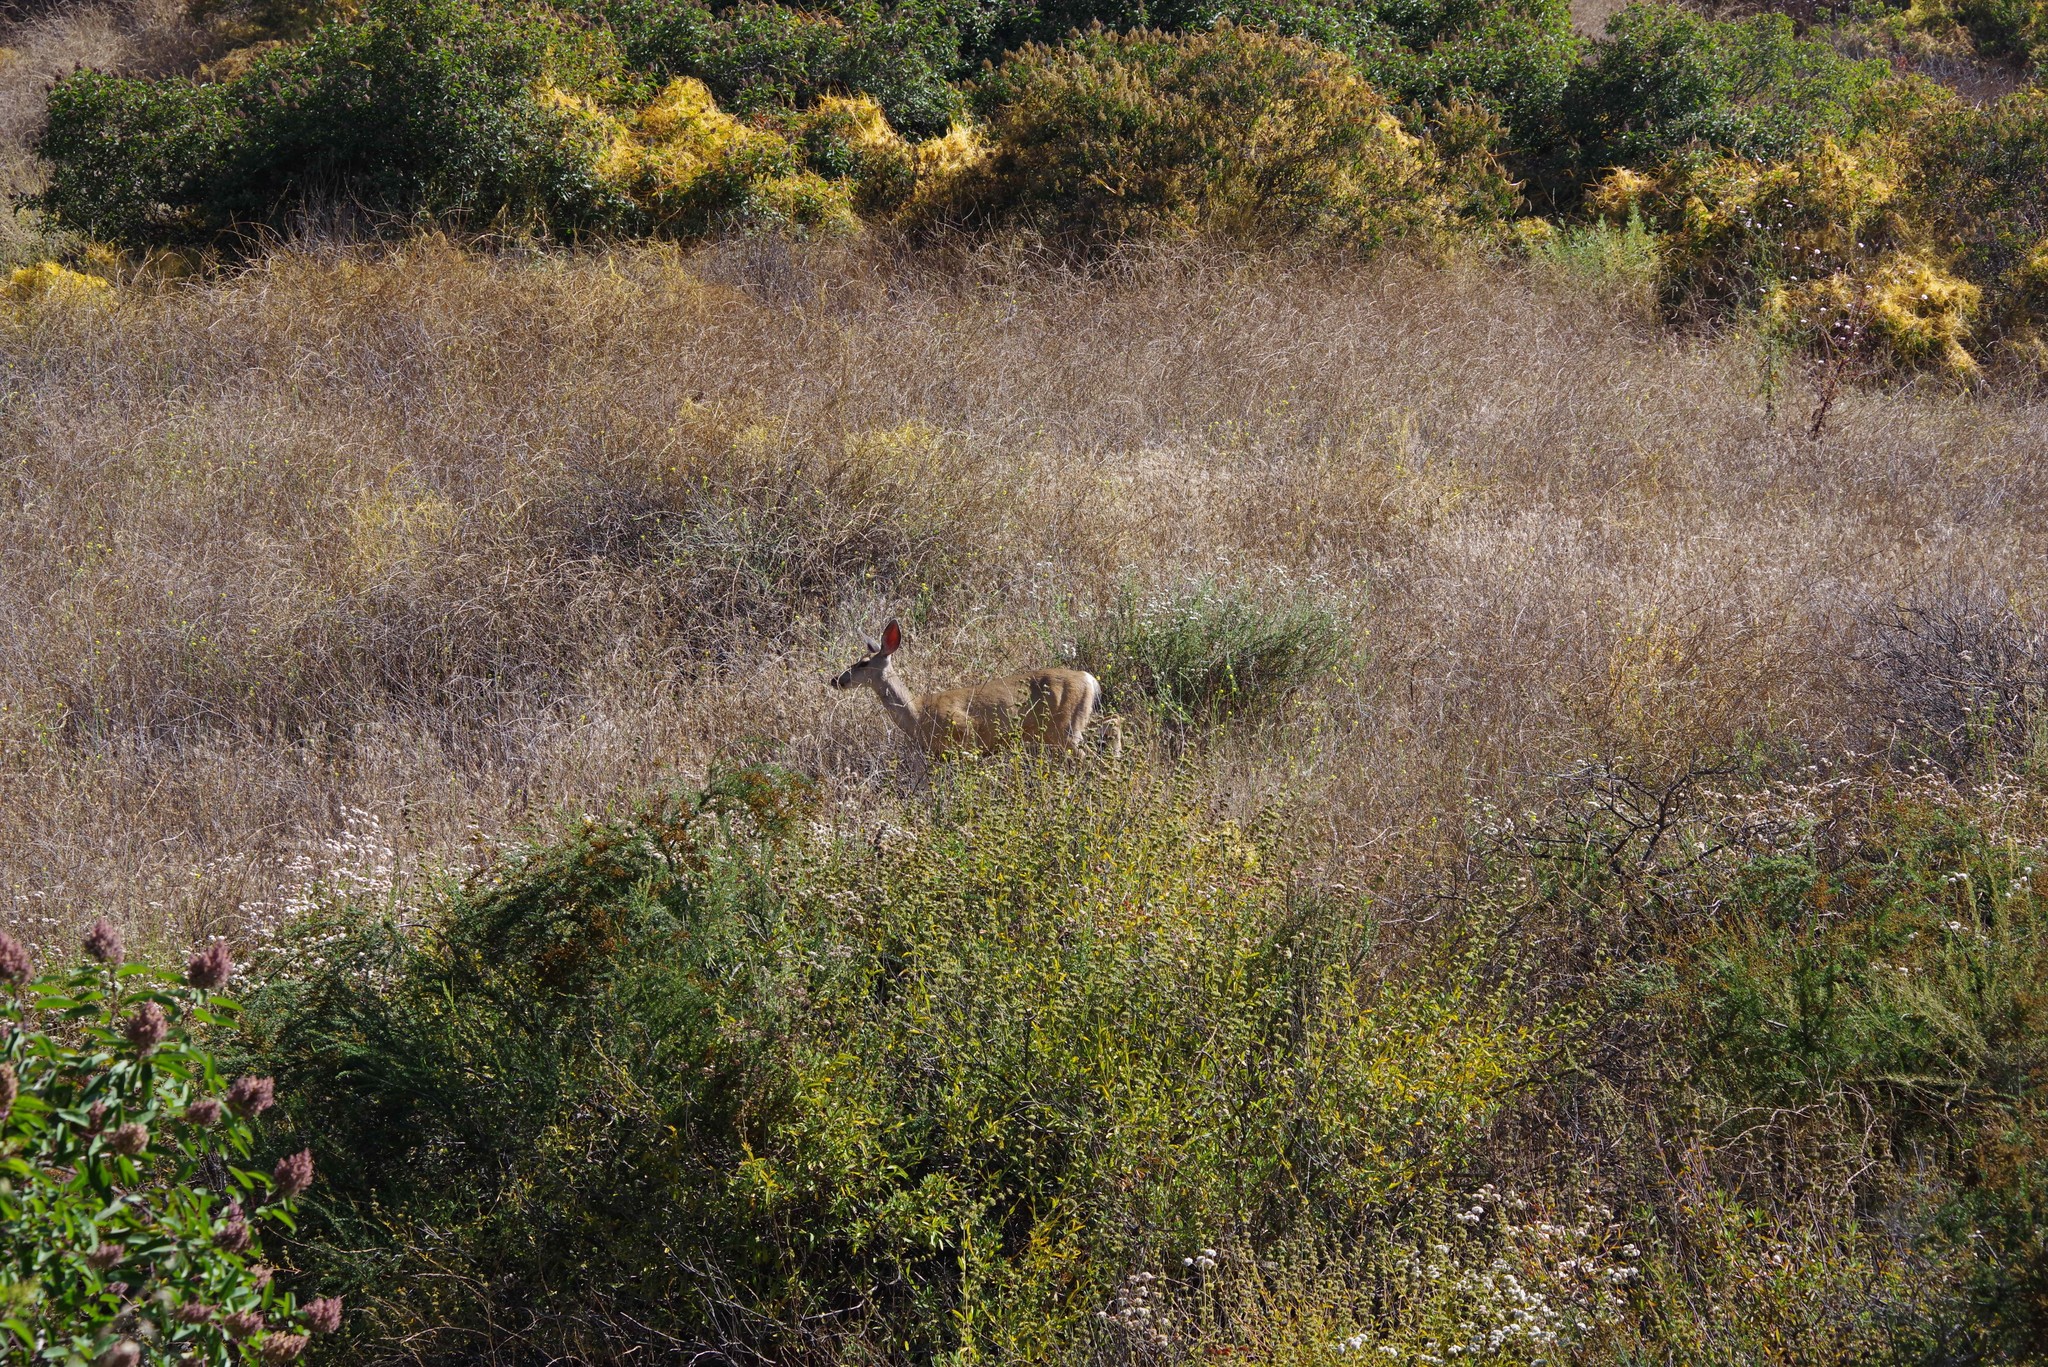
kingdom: Animalia
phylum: Chordata
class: Mammalia
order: Artiodactyla
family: Cervidae
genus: Odocoileus
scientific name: Odocoileus hemionus
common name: Mule deer
